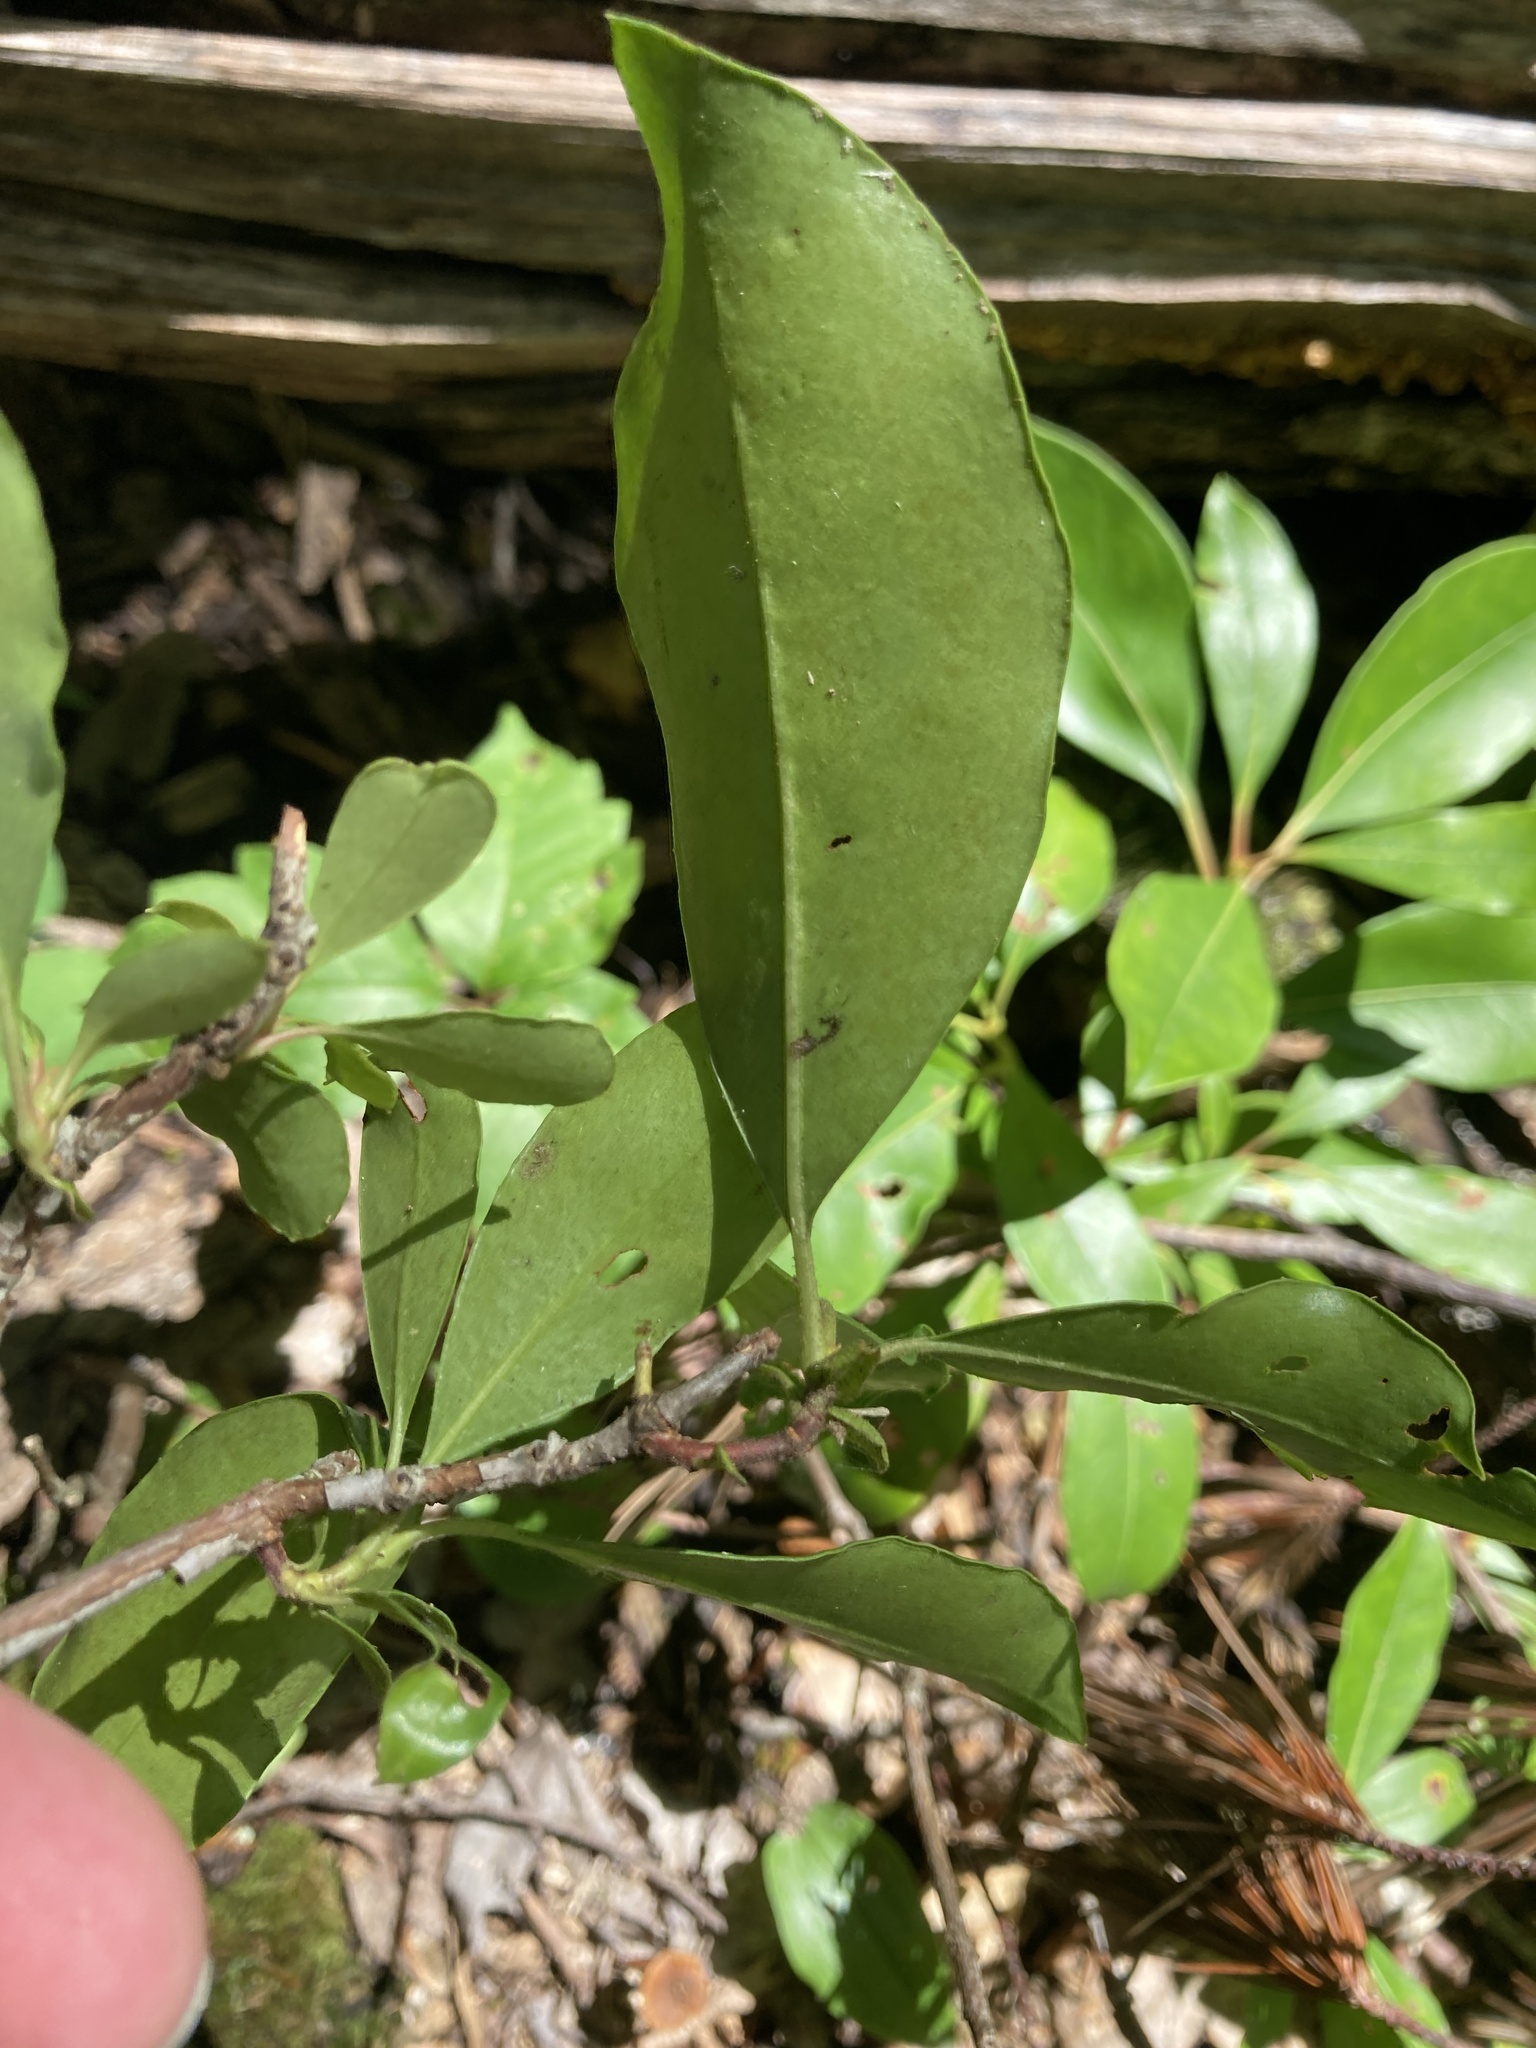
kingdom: Plantae
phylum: Tracheophyta
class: Magnoliopsida
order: Ericales
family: Ericaceae
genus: Kalmia
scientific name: Kalmia latifolia
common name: Mountain-laurel
